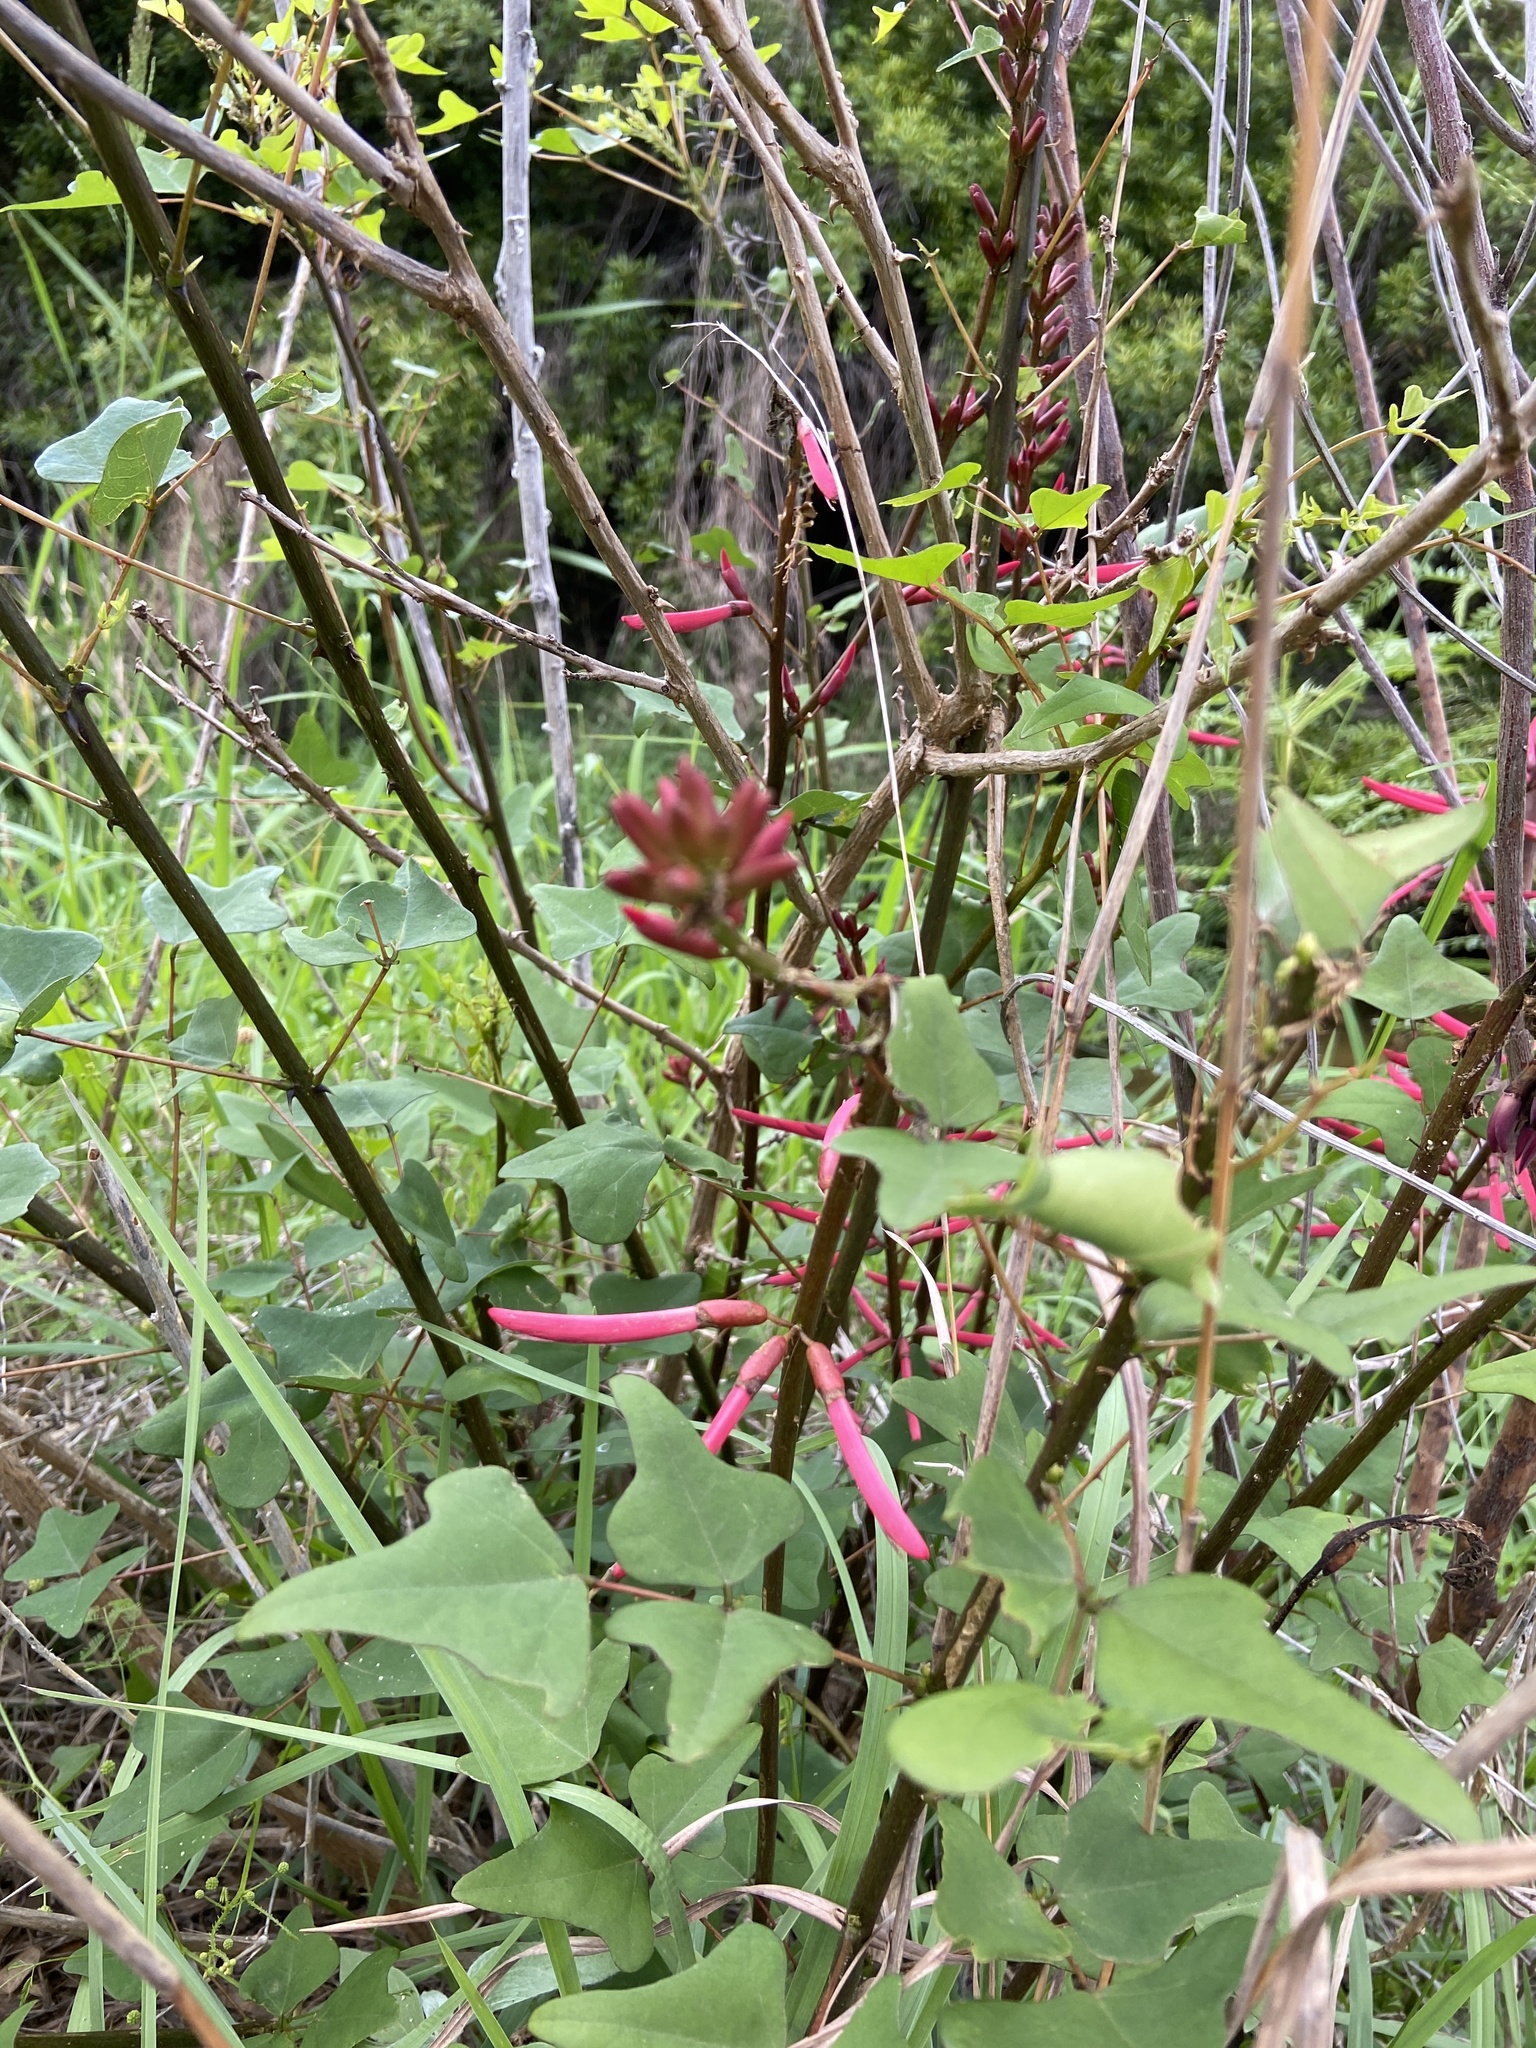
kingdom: Plantae
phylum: Tracheophyta
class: Magnoliopsida
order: Fabales
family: Fabaceae
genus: Erythrina
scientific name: Erythrina herbacea
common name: Coral-bean
